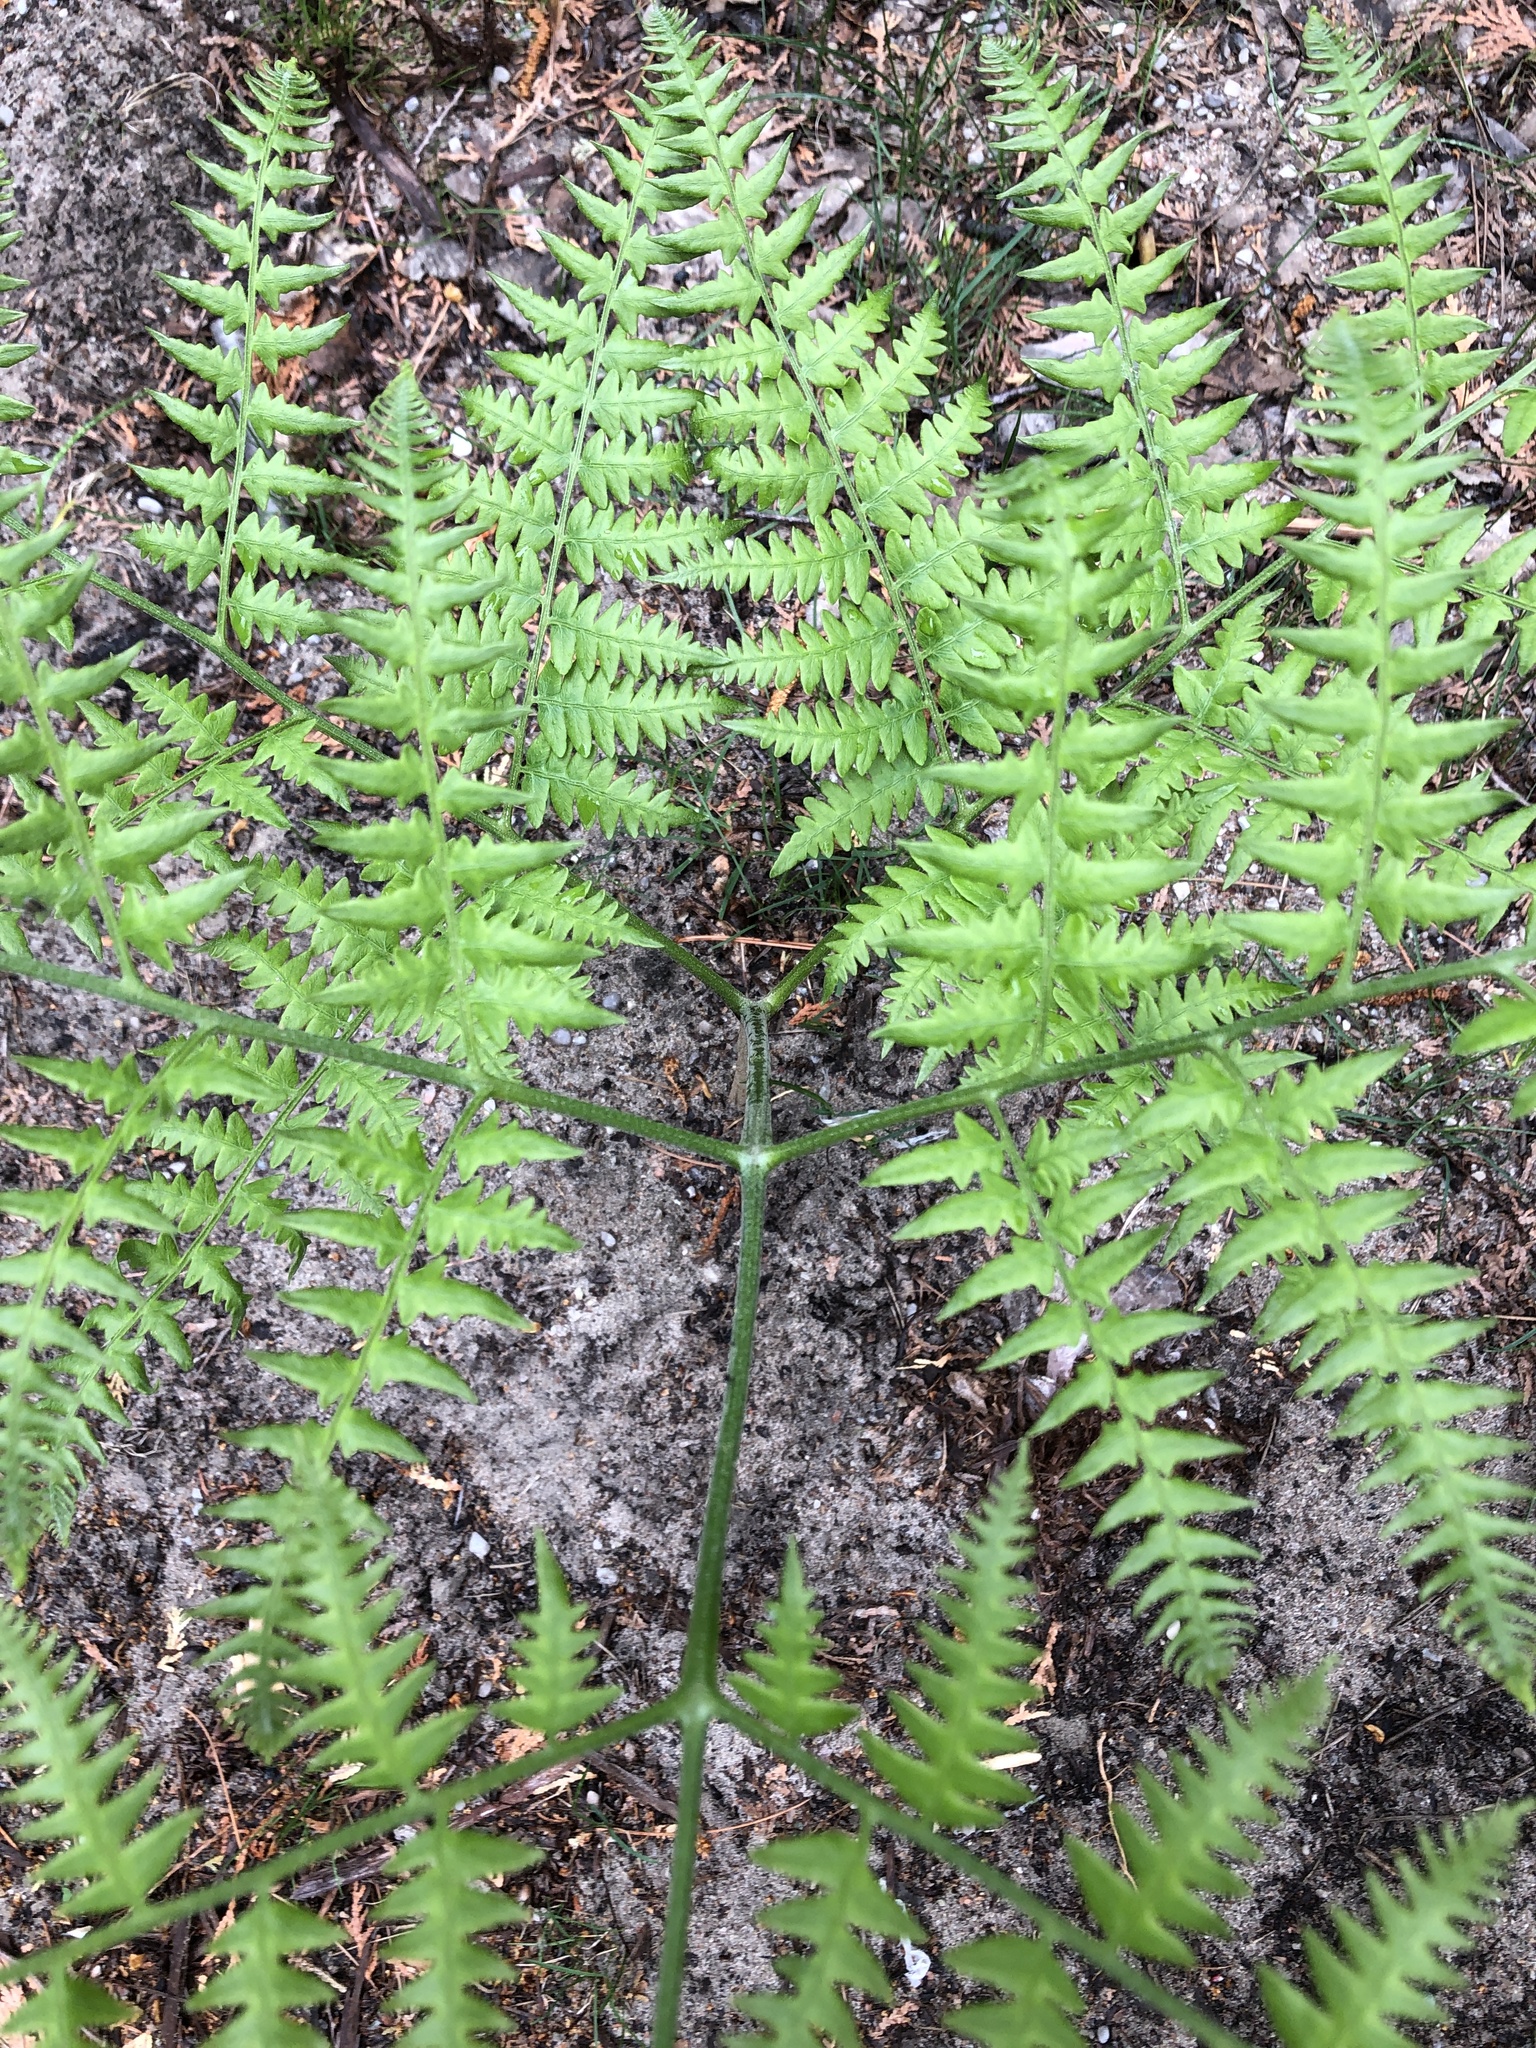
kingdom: Plantae
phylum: Tracheophyta
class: Polypodiopsida
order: Polypodiales
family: Dennstaedtiaceae
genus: Pteridium
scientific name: Pteridium aquilinum
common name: Bracken
